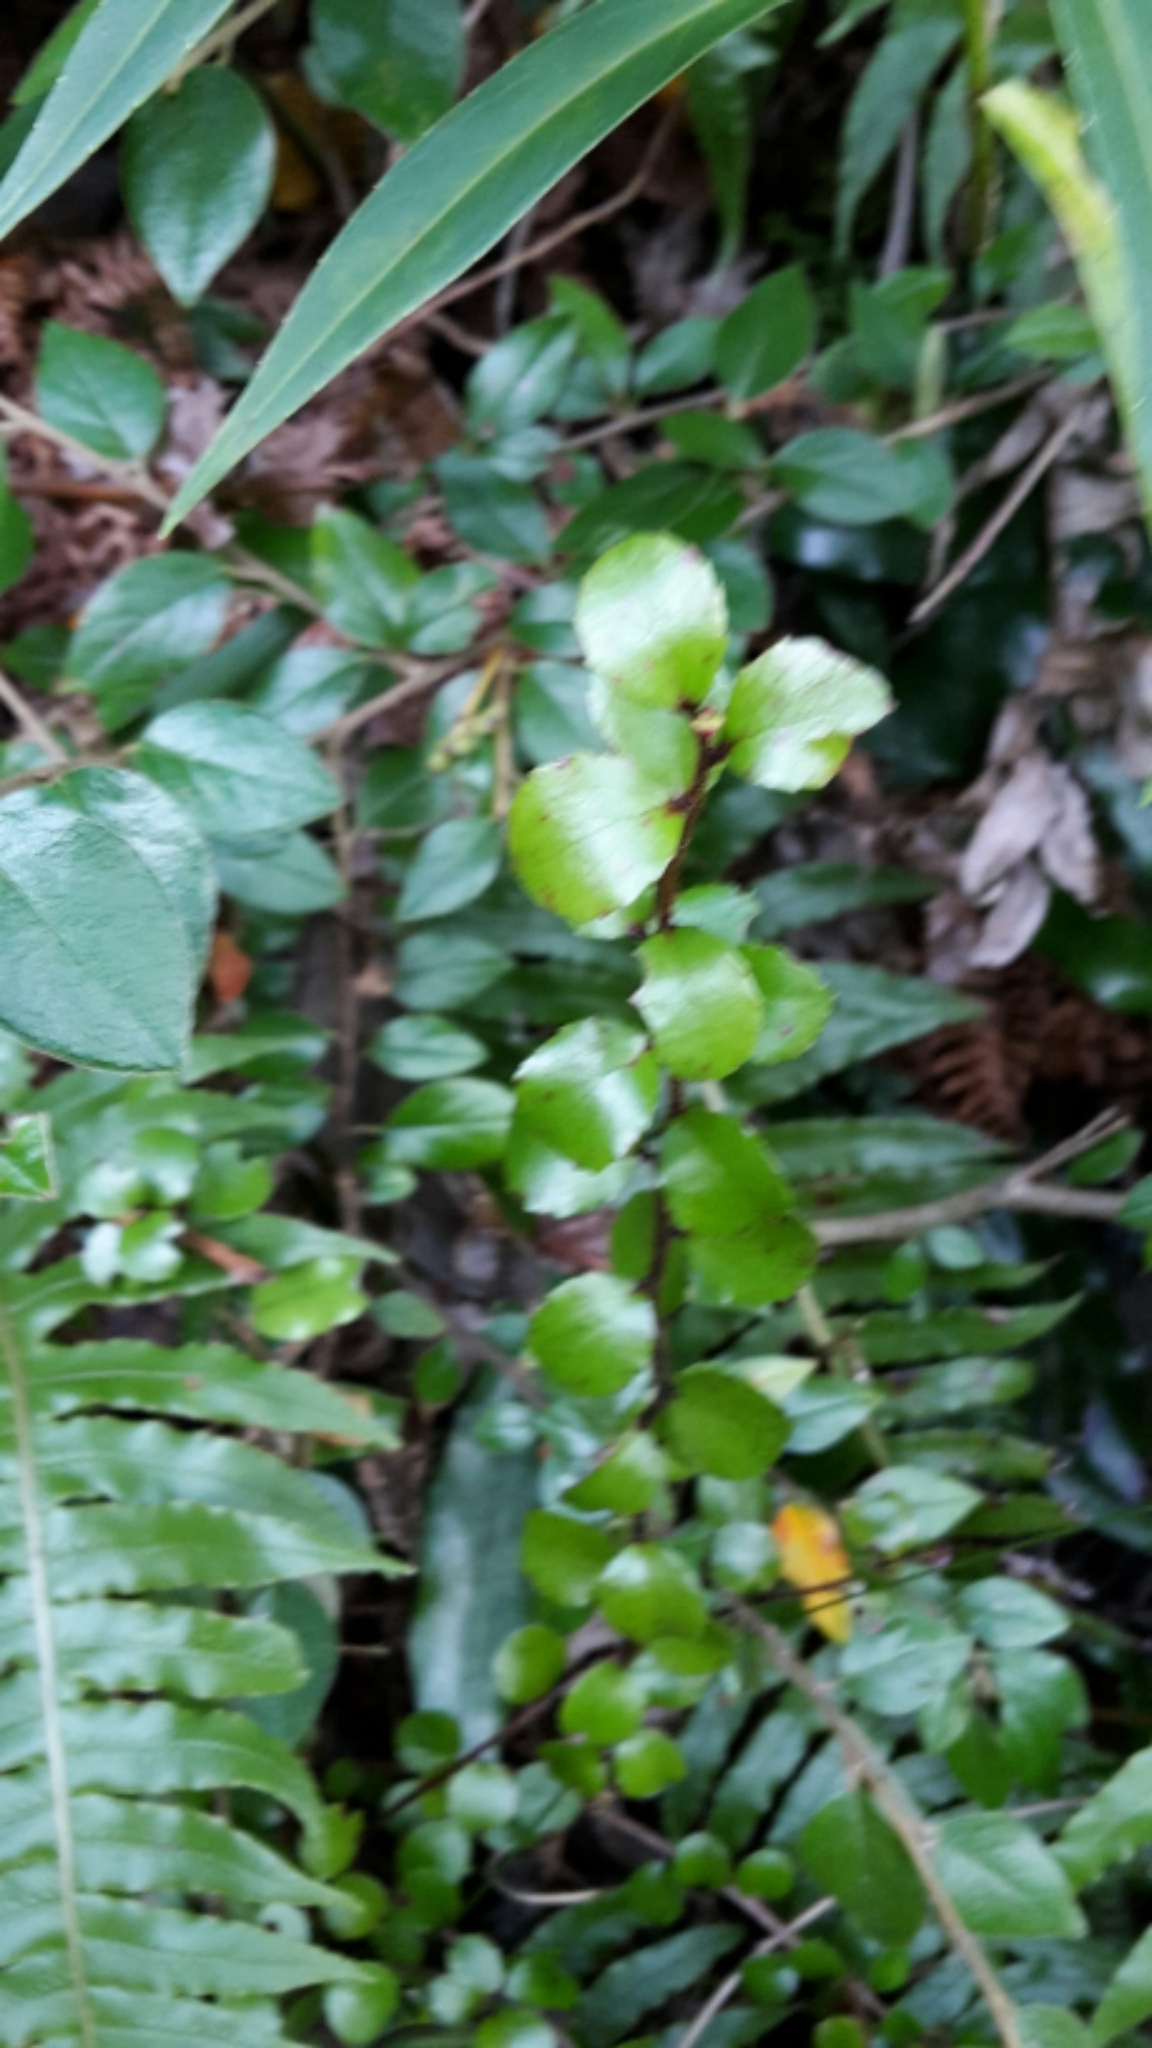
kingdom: Plantae
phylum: Tracheophyta
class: Magnoliopsida
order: Ericales
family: Ericaceae
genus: Gaultheria
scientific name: Gaultheria antipoda
